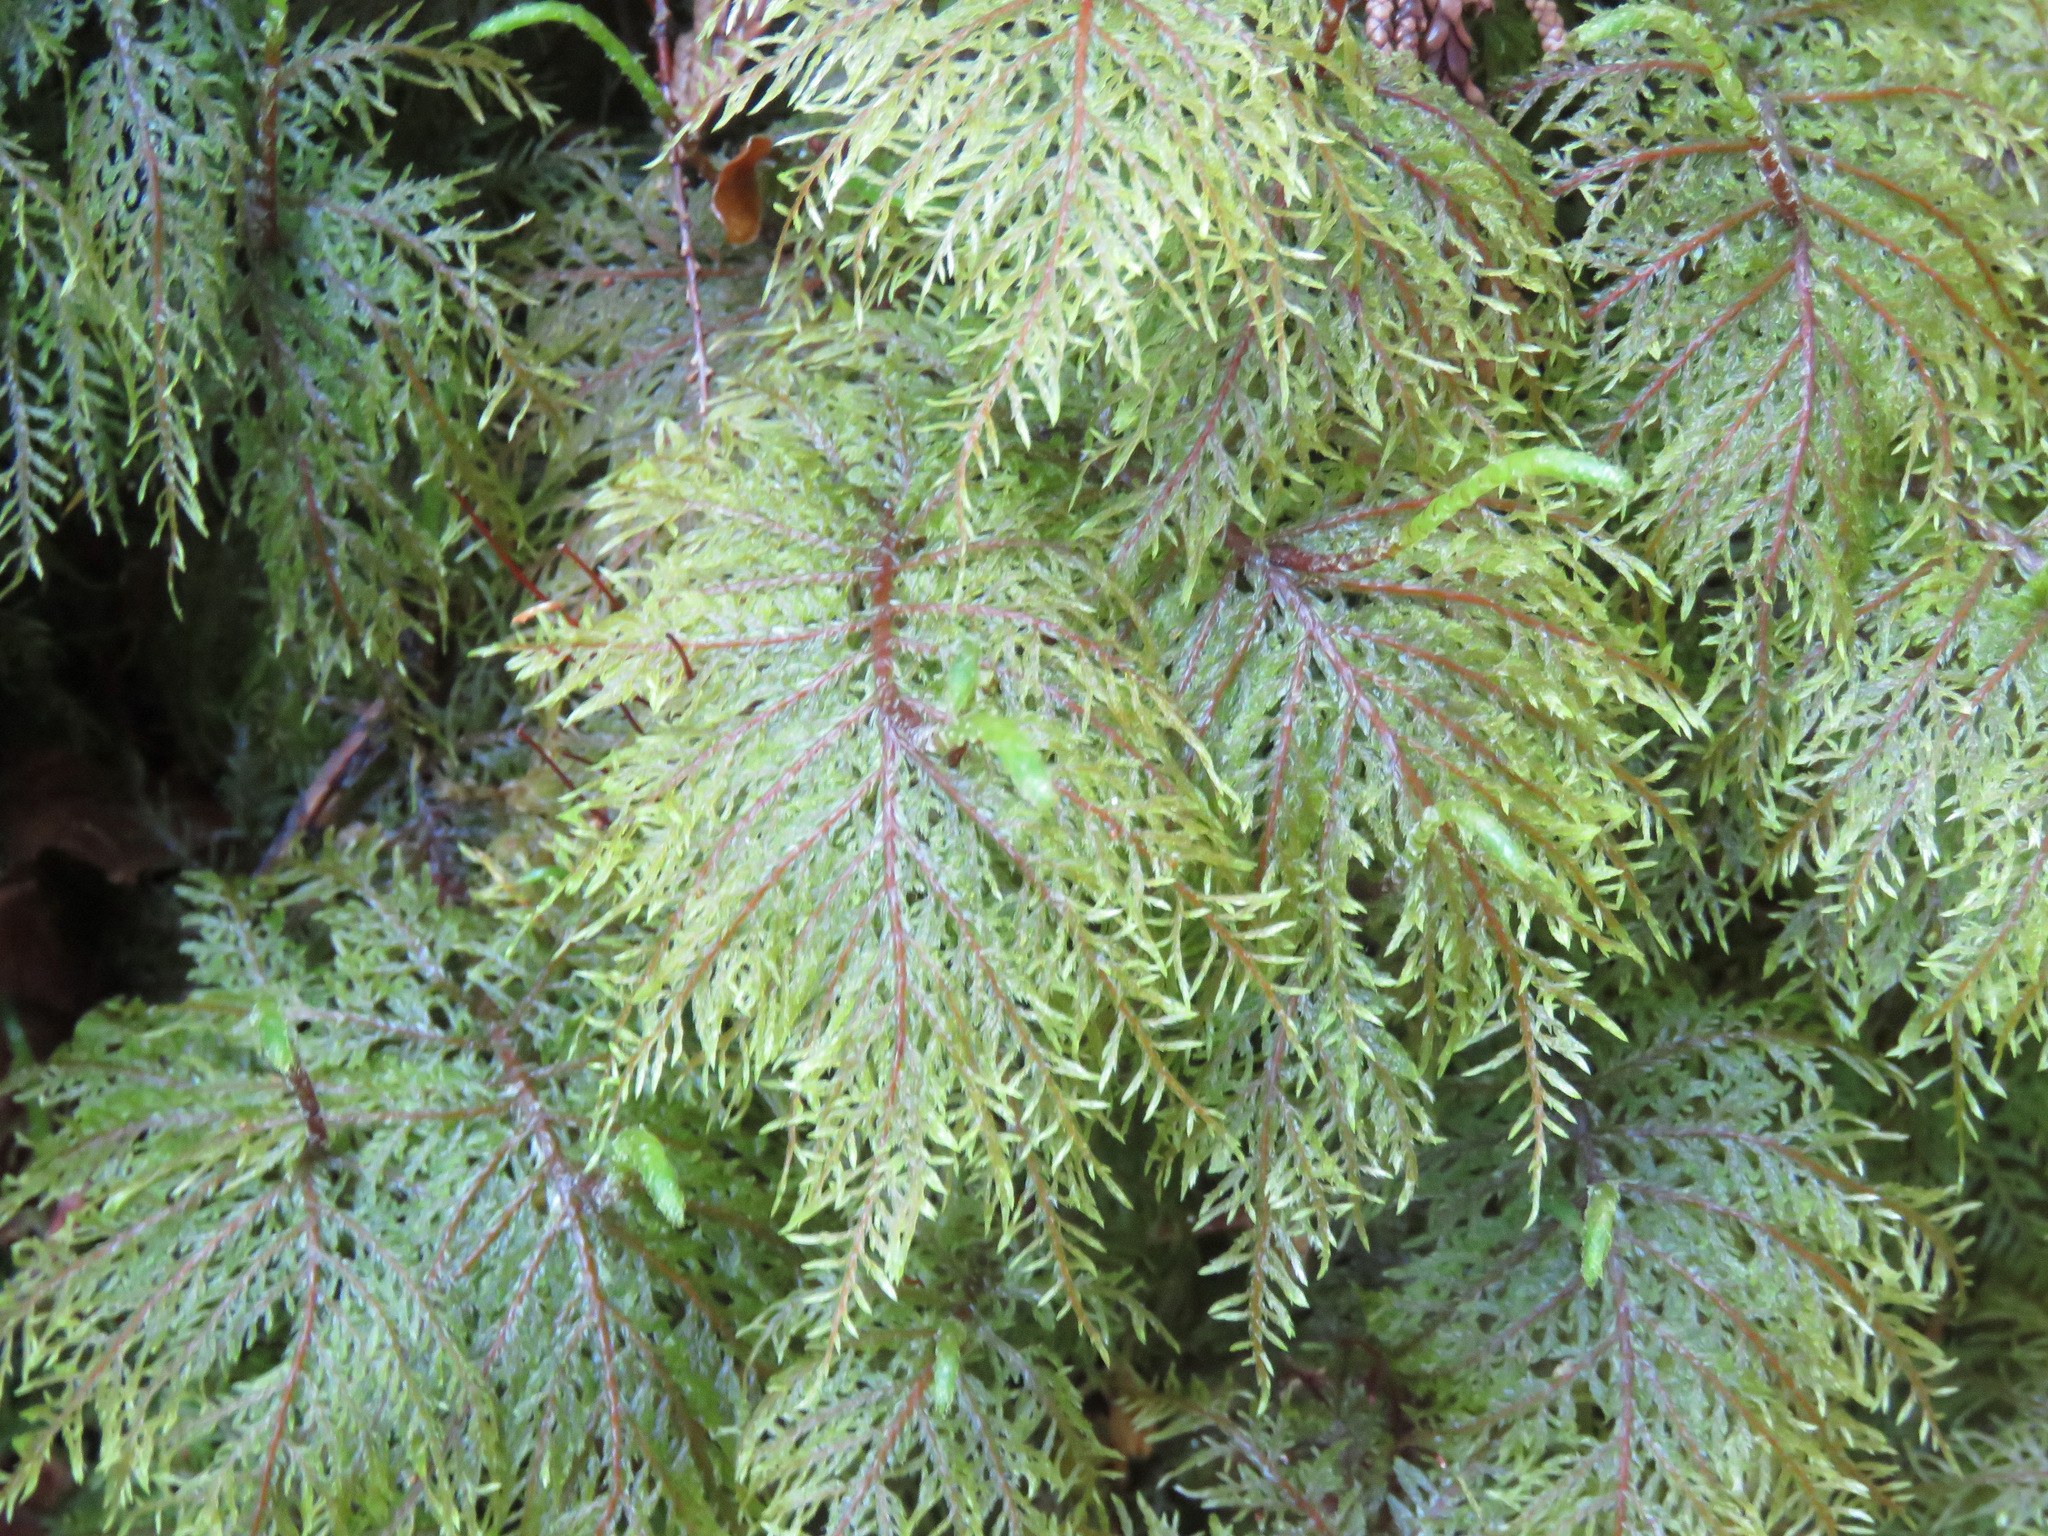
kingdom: Plantae
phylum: Bryophyta
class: Bryopsida
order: Hypnales
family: Hylocomiaceae
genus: Hylocomium
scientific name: Hylocomium splendens
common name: Stairstep moss
